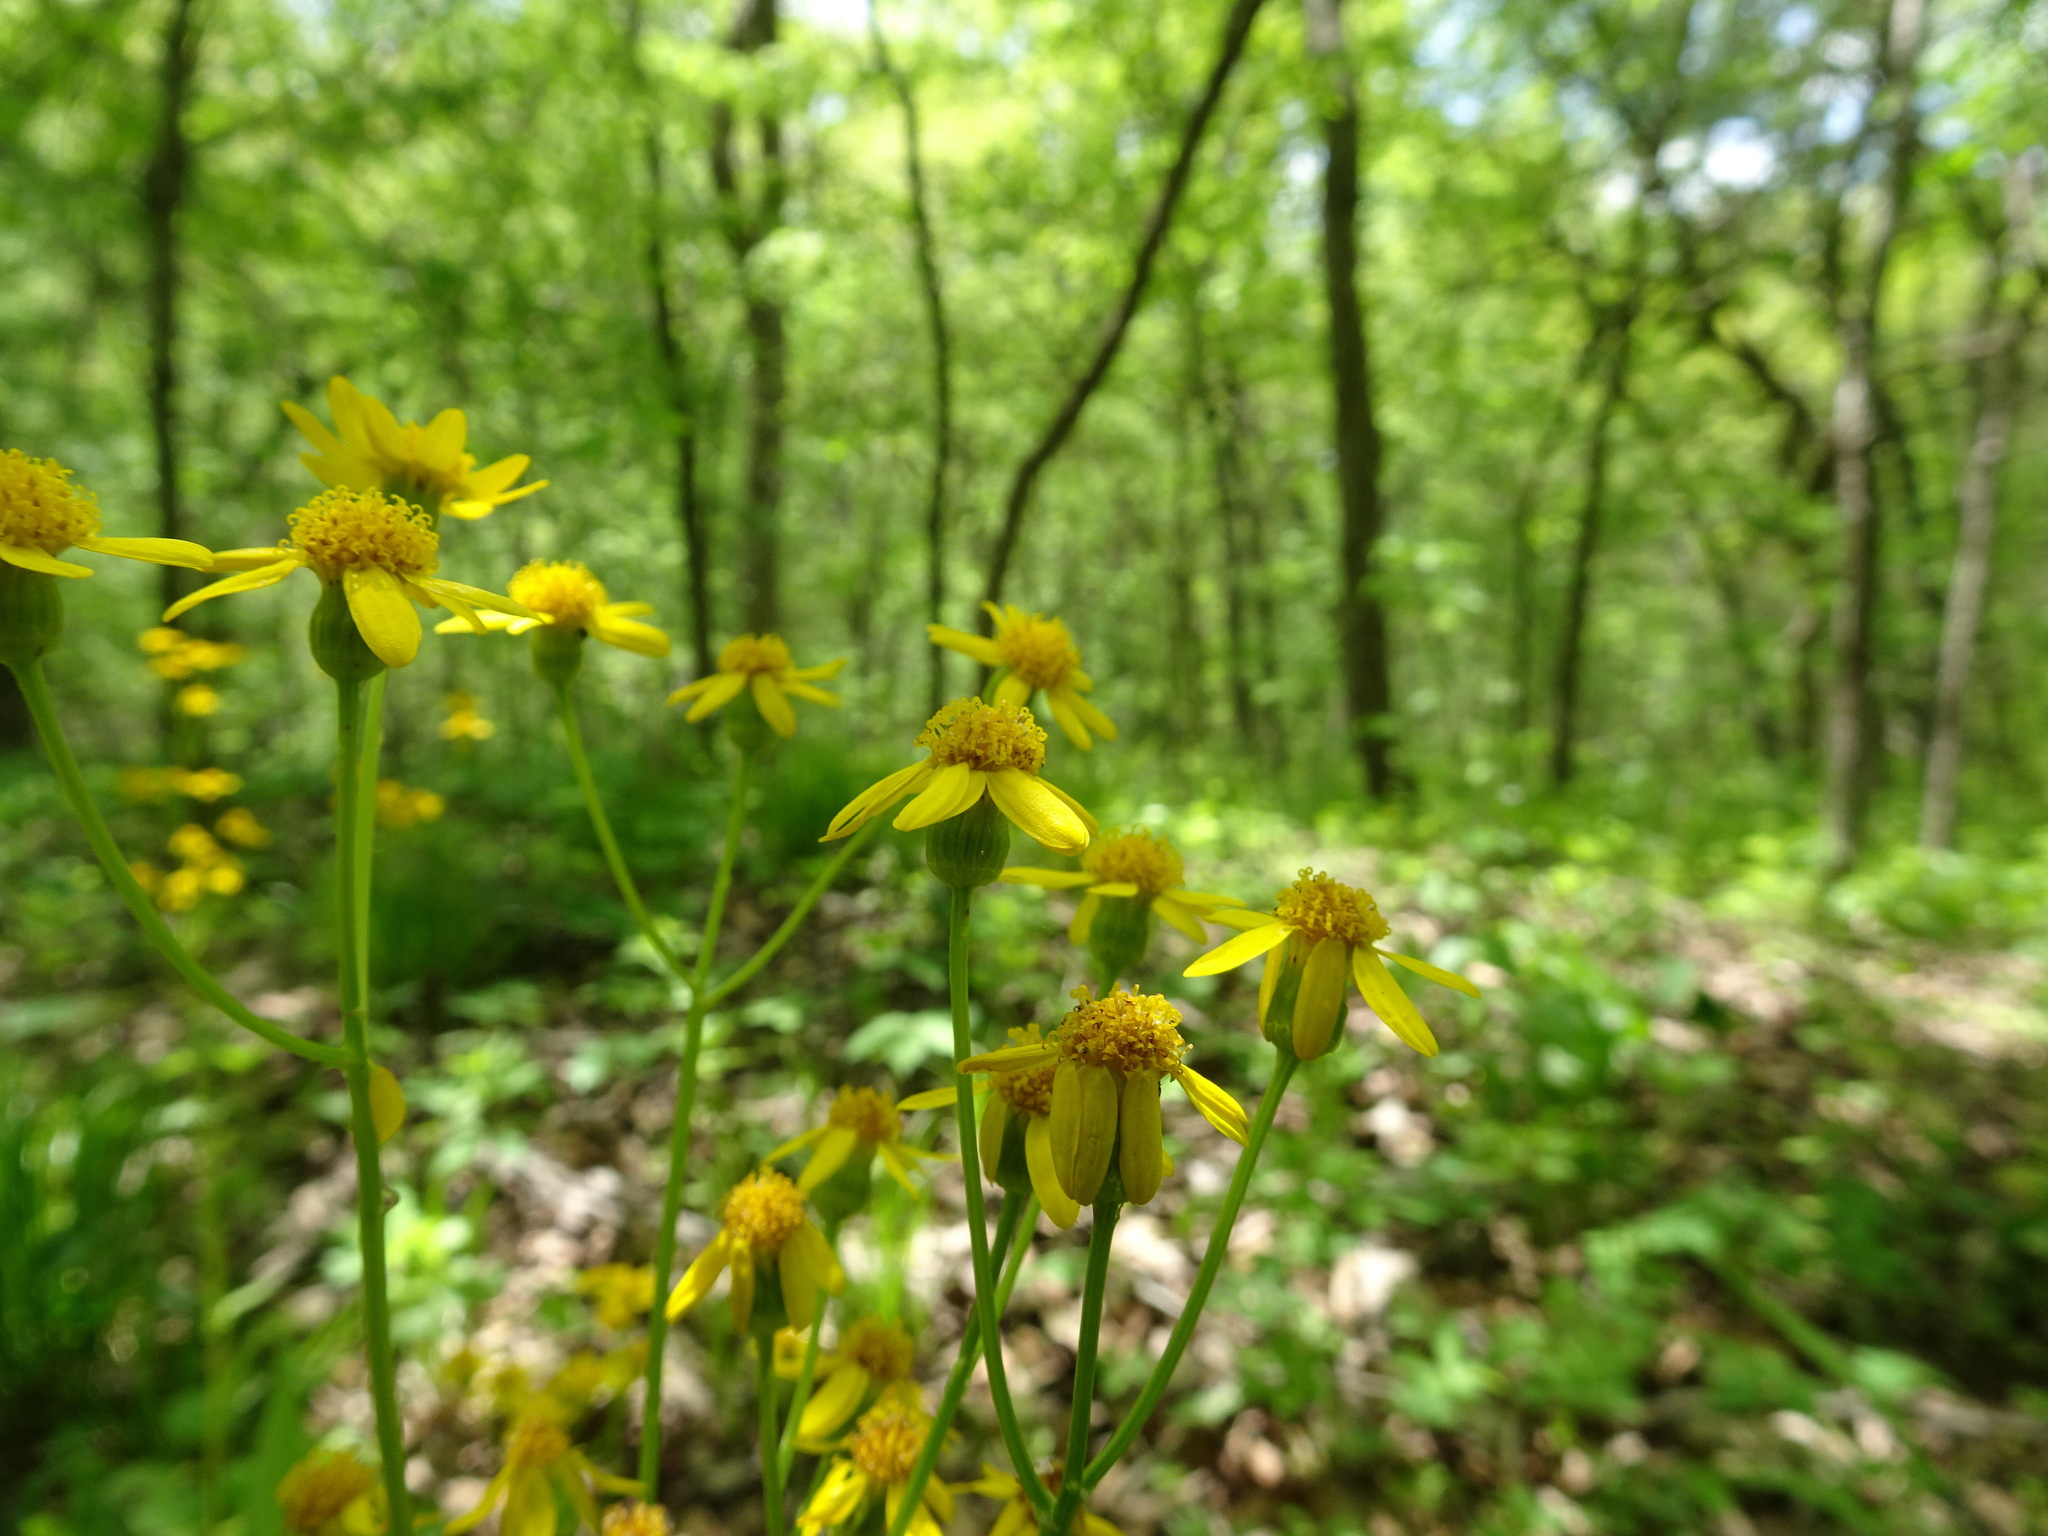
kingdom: Plantae
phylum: Tracheophyta
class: Magnoliopsida
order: Asterales
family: Asteraceae
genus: Packera
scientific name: Packera obovata
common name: Round-leaf ragwort
